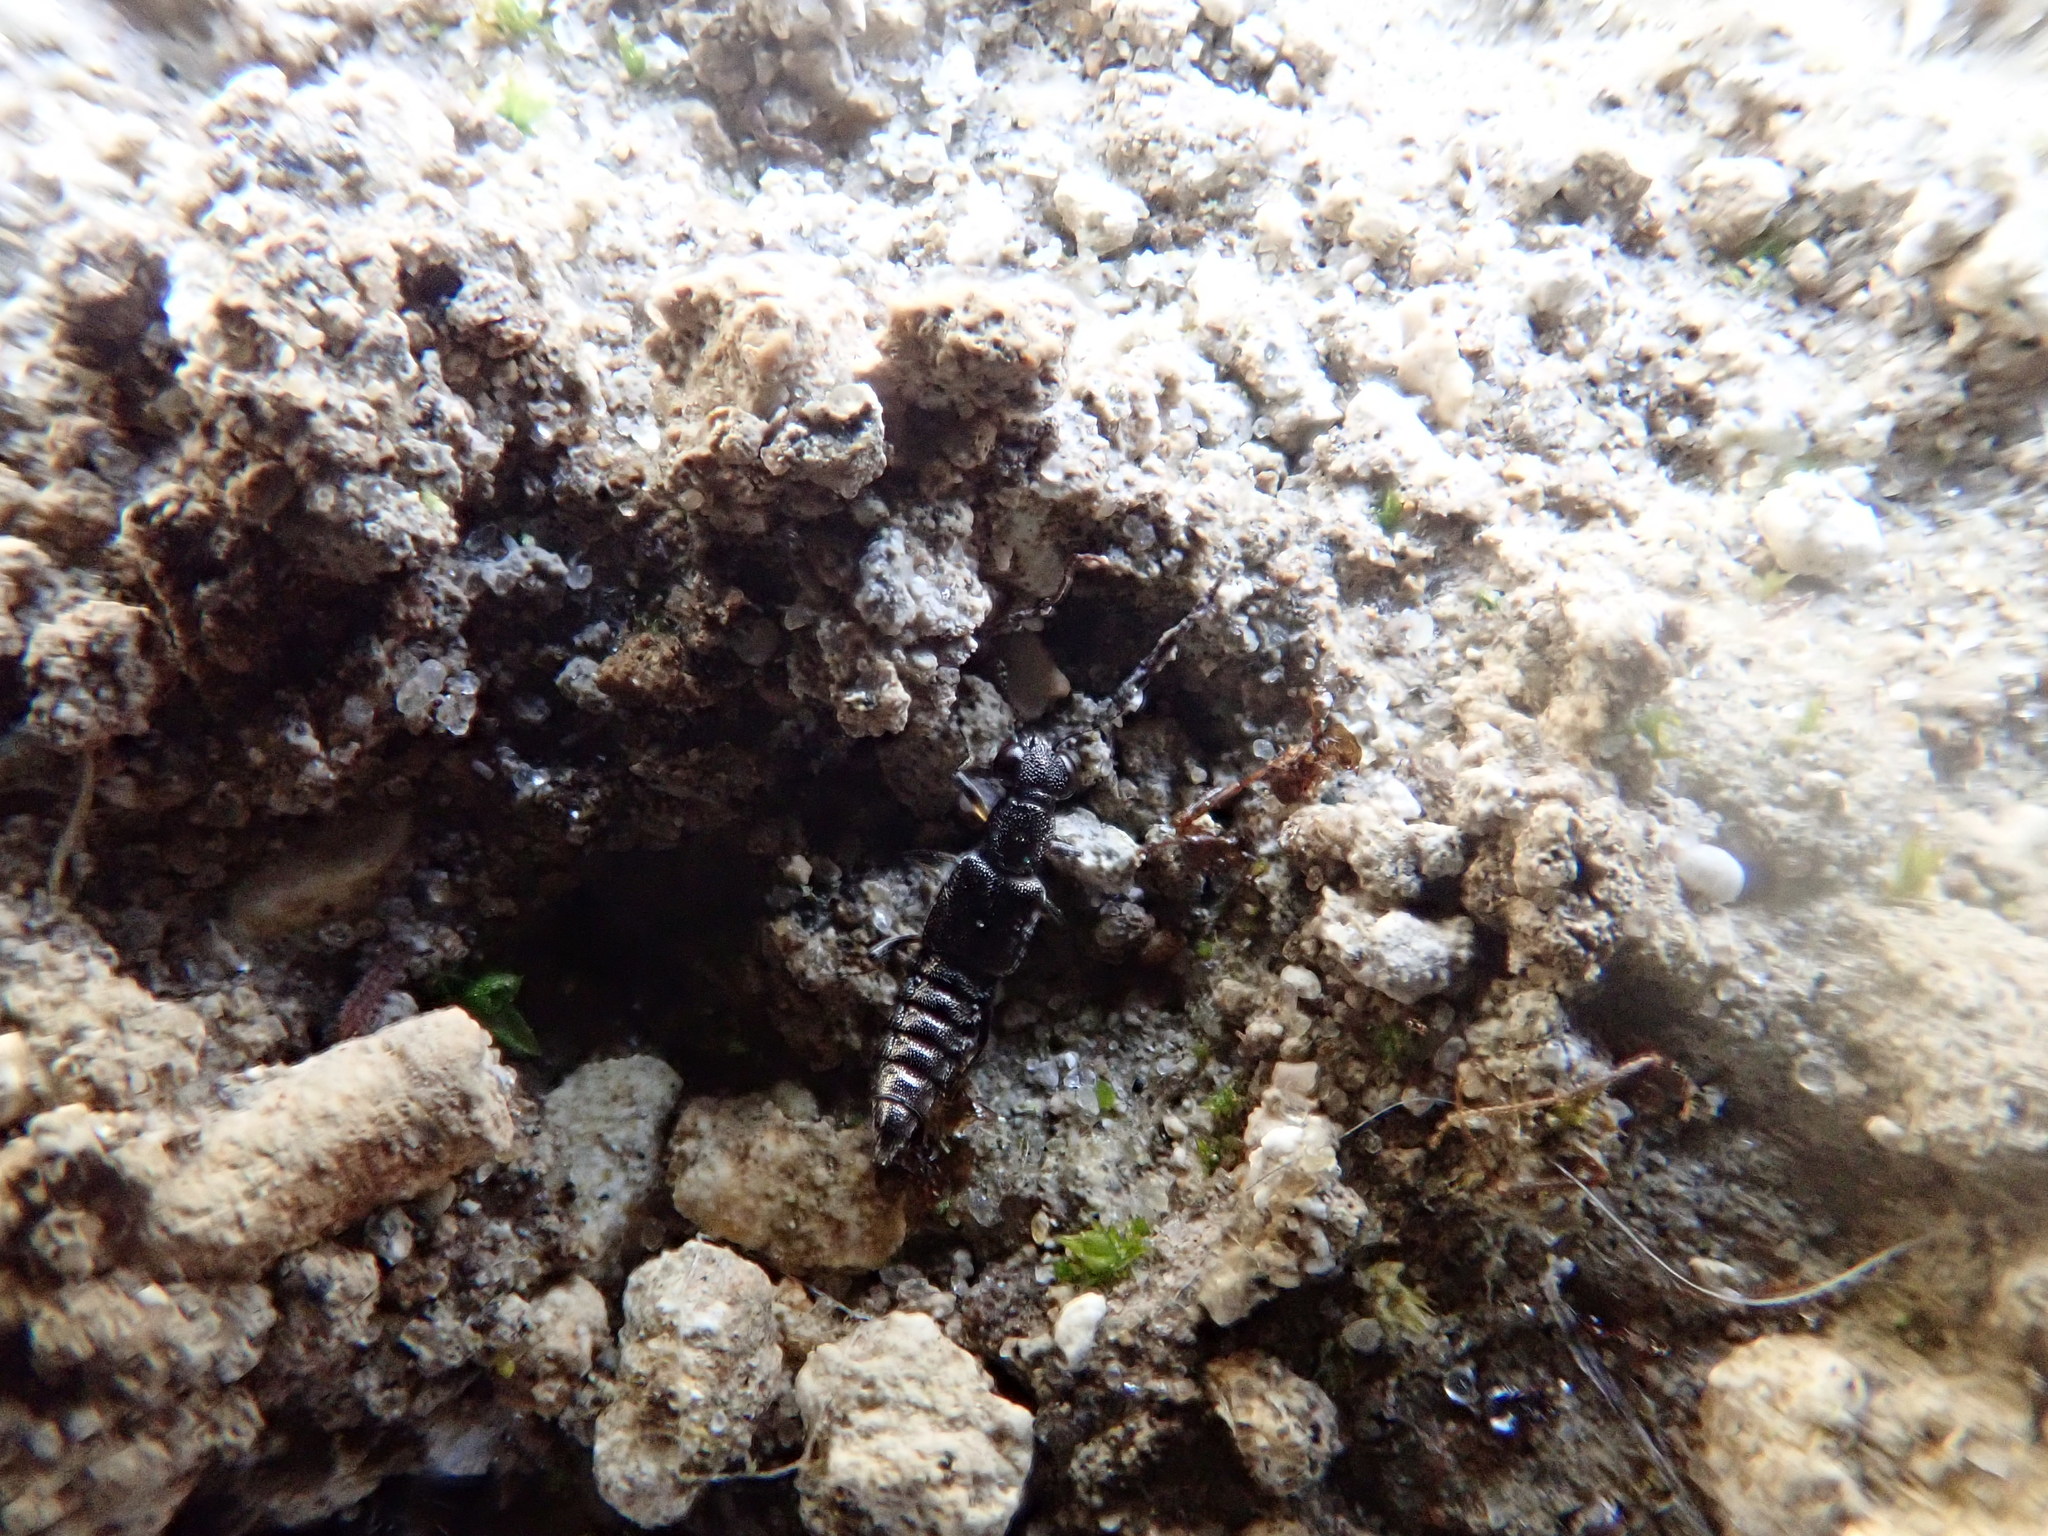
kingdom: Animalia
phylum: Arthropoda
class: Insecta
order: Coleoptera
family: Staphylinidae
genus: Stenus
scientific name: Stenus
